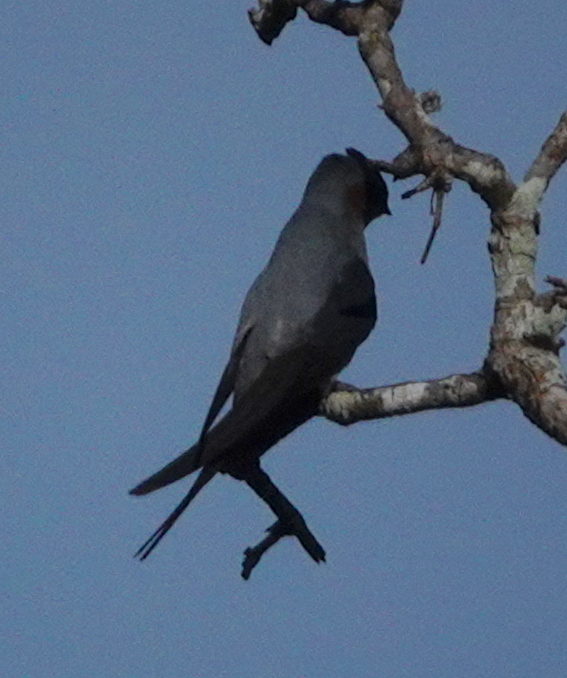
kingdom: Animalia
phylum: Chordata
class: Aves
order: Apodiformes
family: Hemiprocnidae
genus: Hemiprocne
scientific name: Hemiprocne coronata
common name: Crested treeswift
